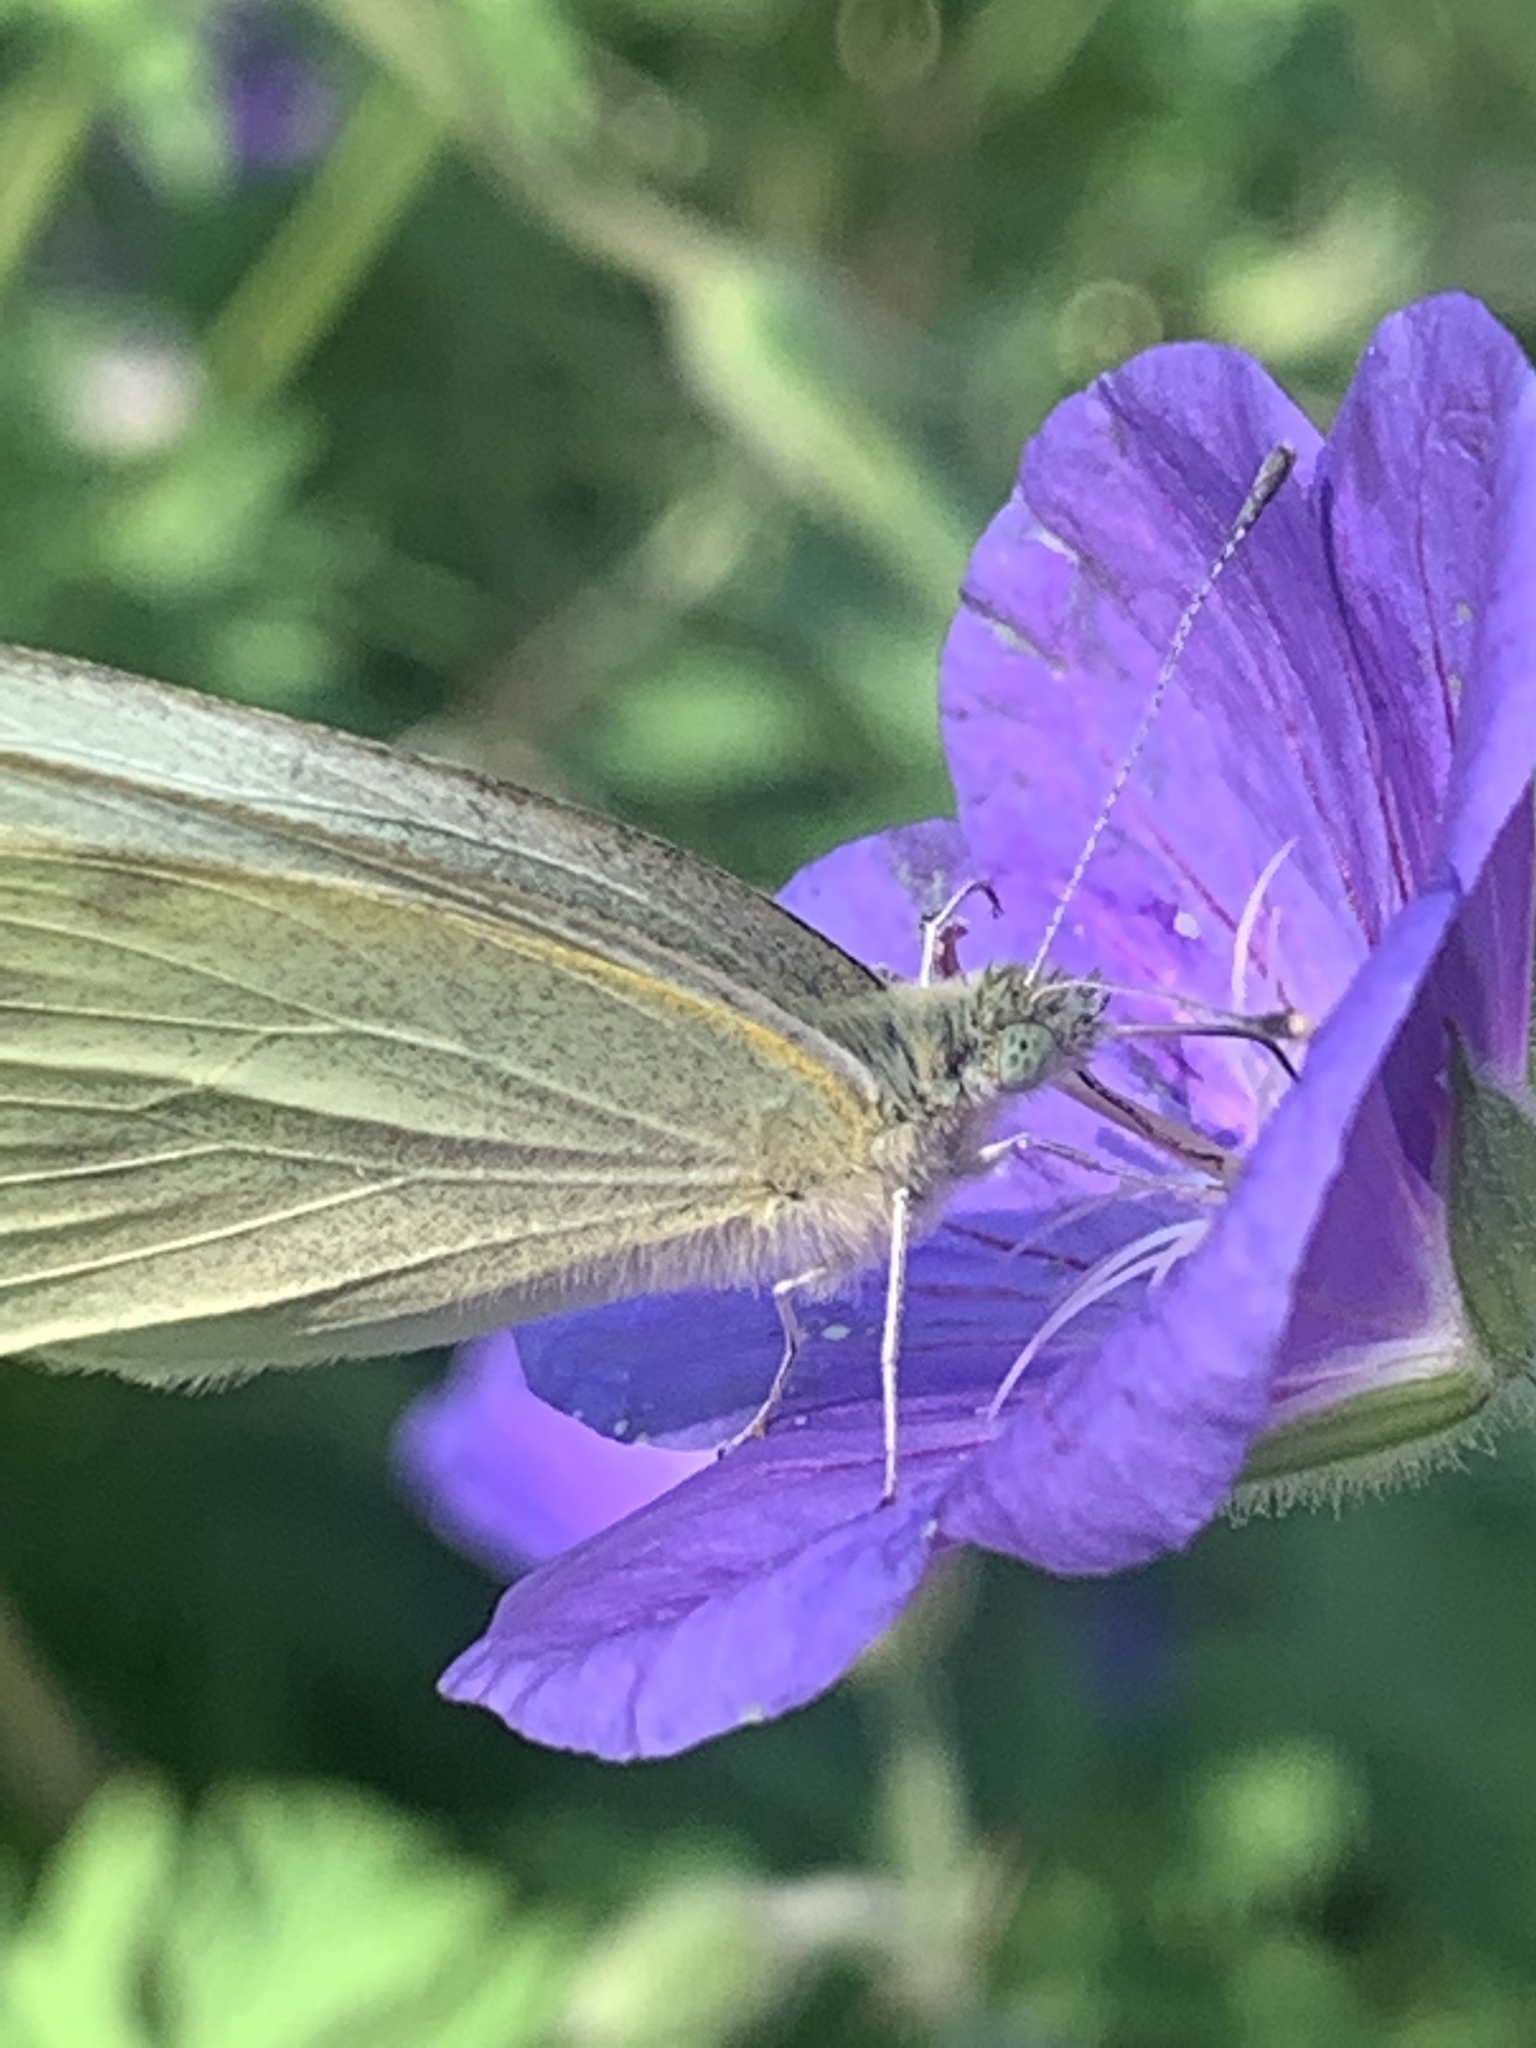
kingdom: Animalia
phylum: Arthropoda
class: Insecta
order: Lepidoptera
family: Pieridae
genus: Pieris
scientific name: Pieris rapae
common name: Small white
